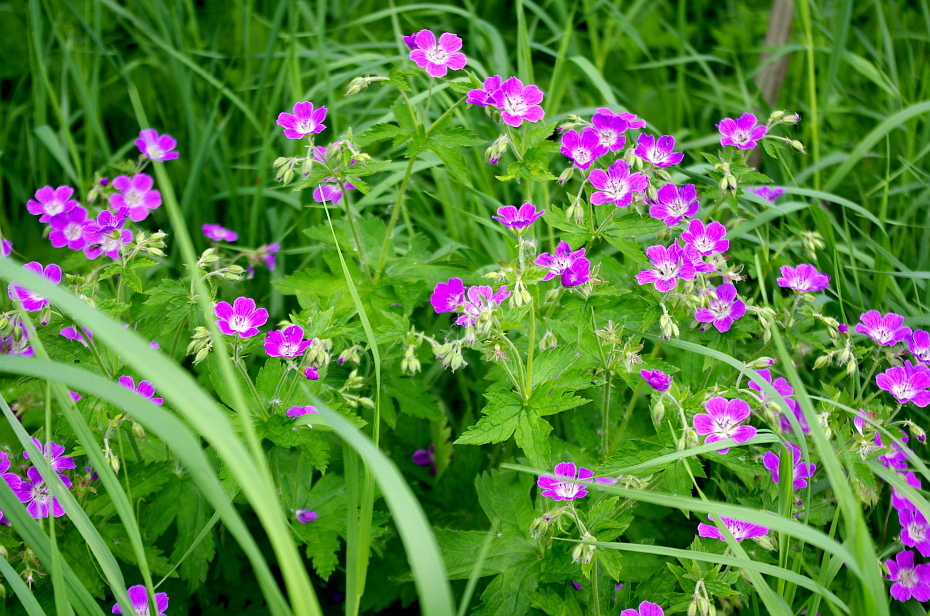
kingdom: Plantae
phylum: Tracheophyta
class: Magnoliopsida
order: Geraniales
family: Geraniaceae
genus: Geranium
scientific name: Geranium sylvaticum
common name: Wood crane's-bill
